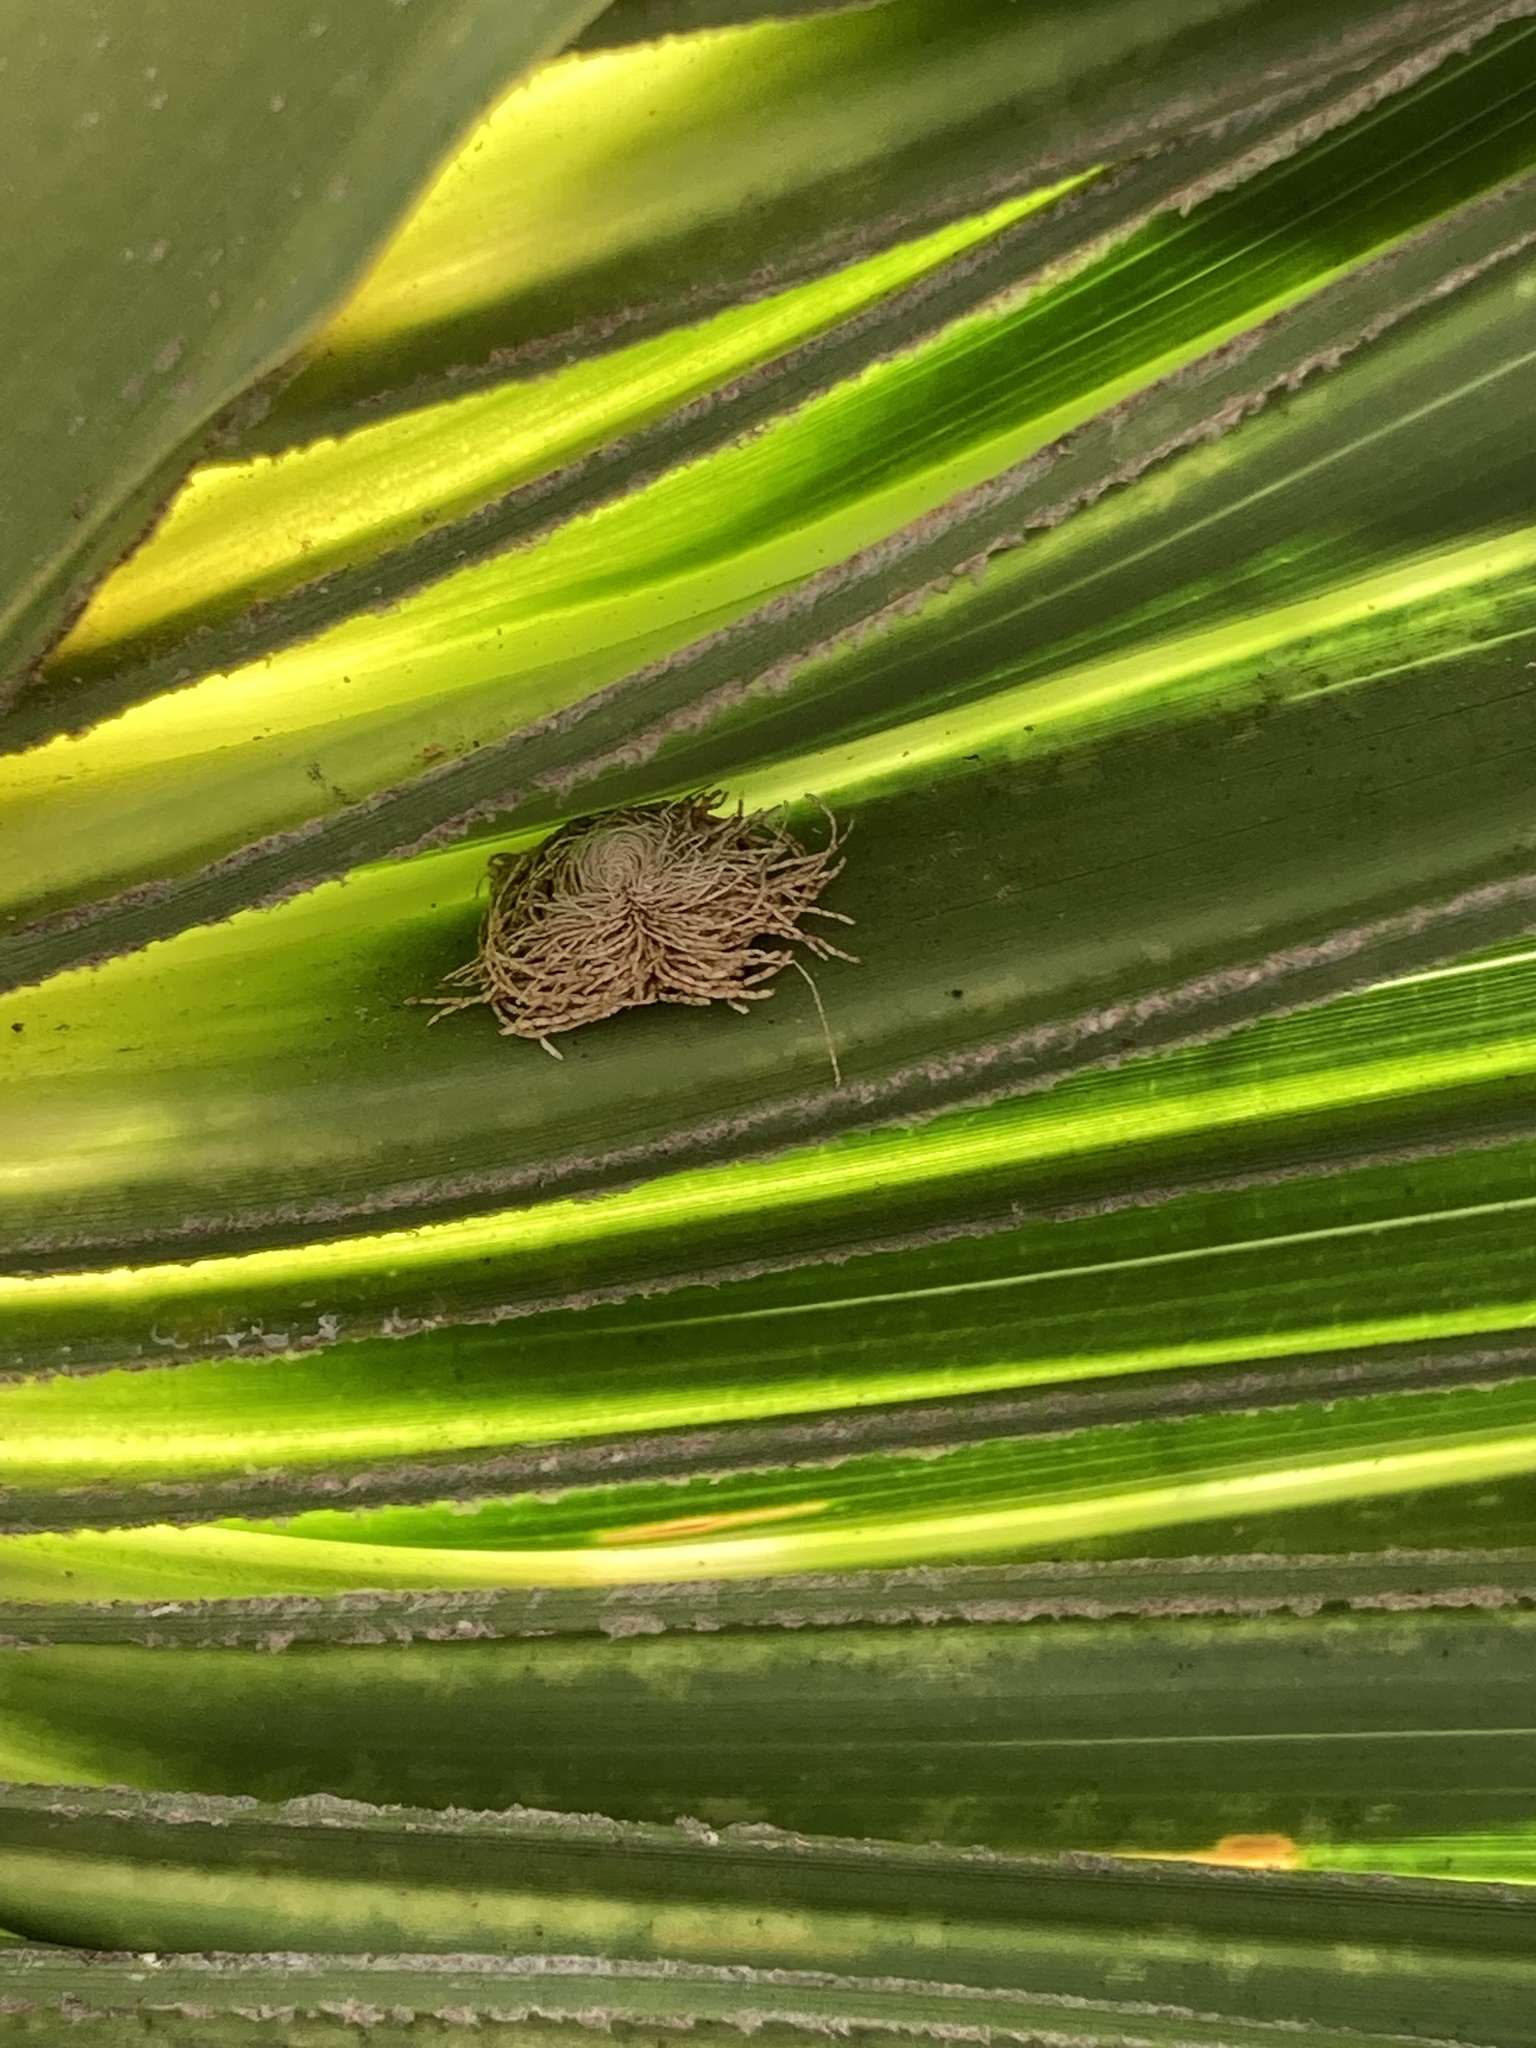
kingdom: Animalia
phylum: Arthropoda
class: Insecta
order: Coleoptera
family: Chrysomelidae
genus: Hemisphaerota
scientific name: Hemisphaerota cyanea
